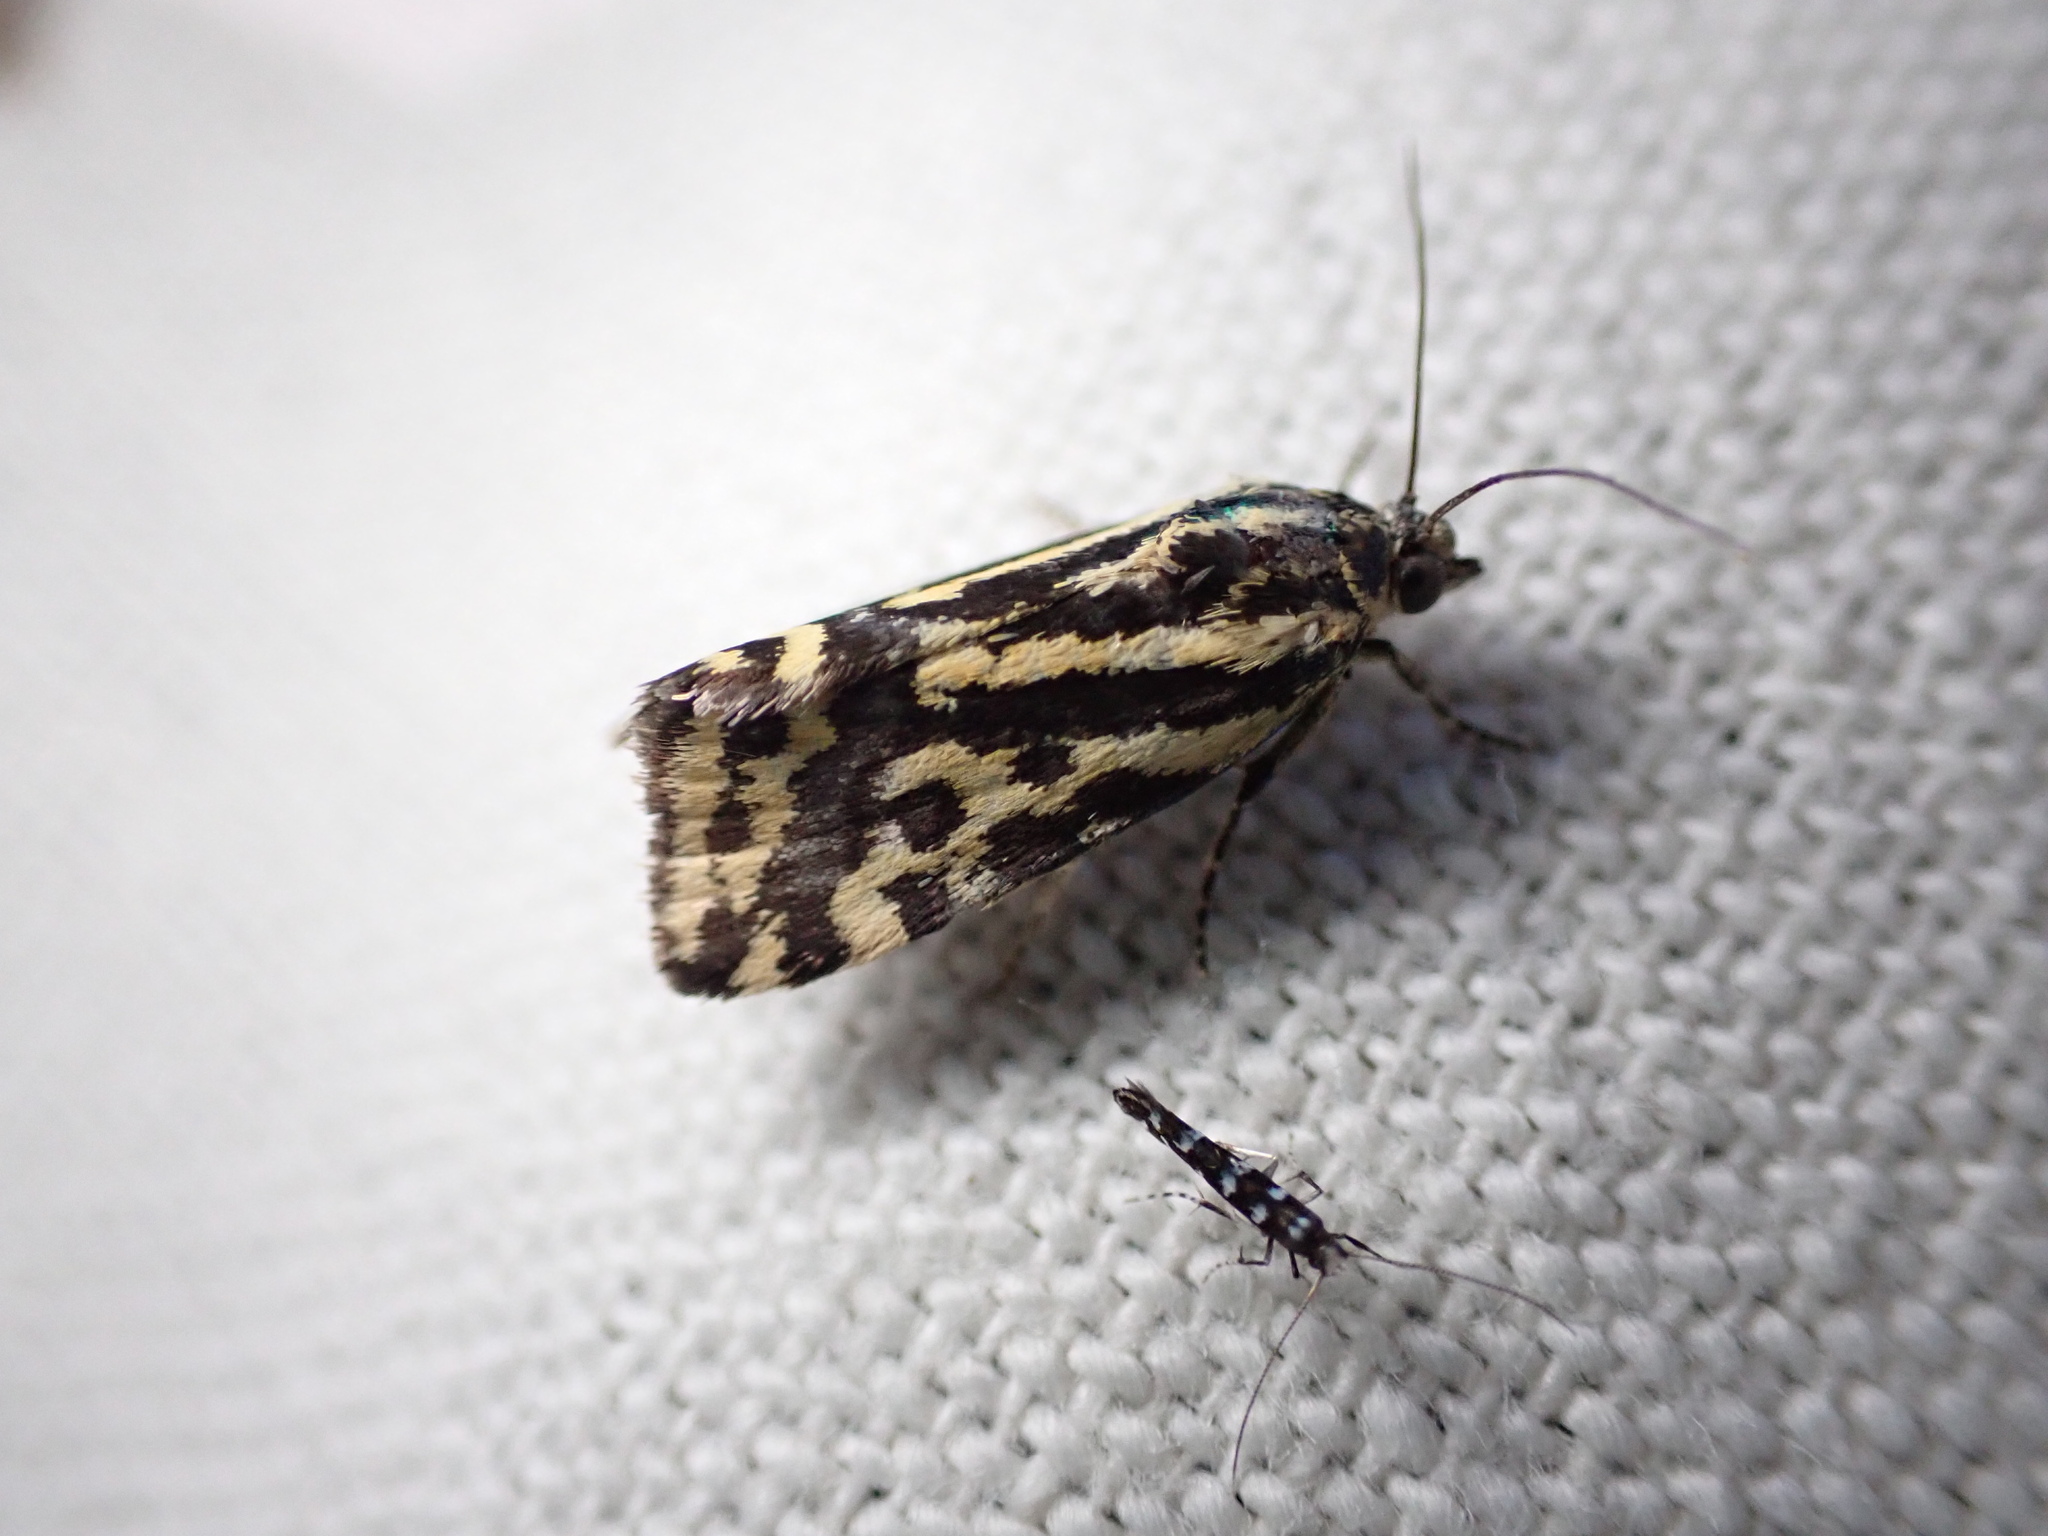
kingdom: Animalia
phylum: Arthropoda
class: Insecta
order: Lepidoptera
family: Noctuidae
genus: Acontia
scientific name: Acontia trabealis
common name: Spotted sulphur
